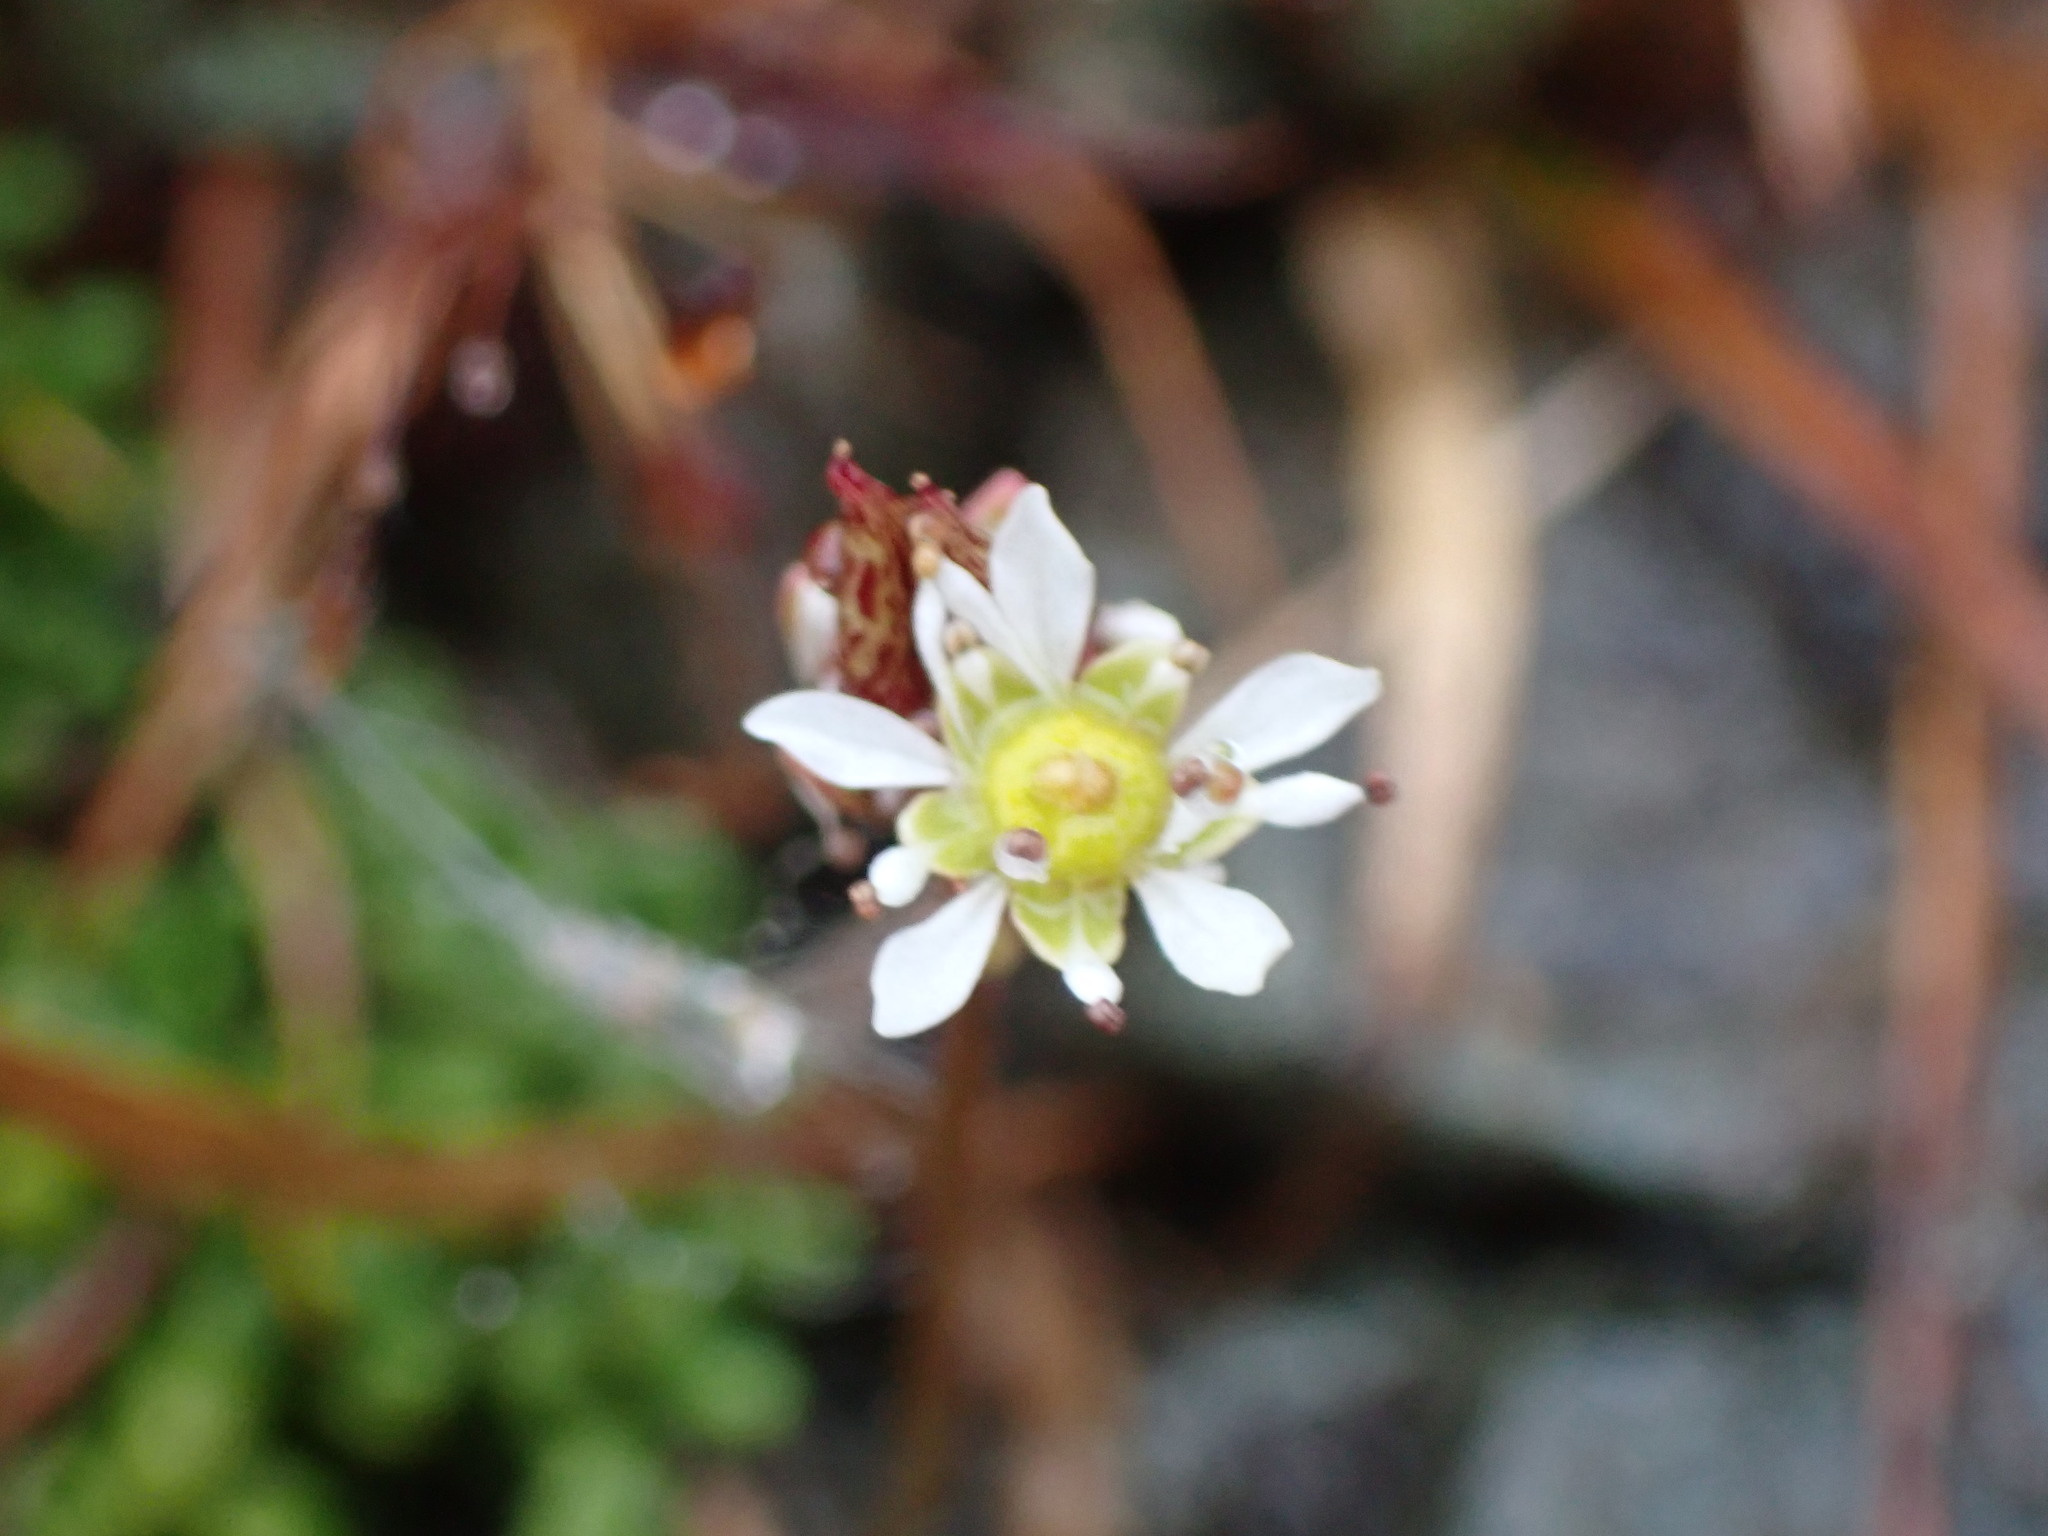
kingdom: Plantae
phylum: Tracheophyta
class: Magnoliopsida
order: Saxifragales
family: Saxifragaceae
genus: Micranthes
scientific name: Micranthes tolmiei
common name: Tolmie's saxifrage
